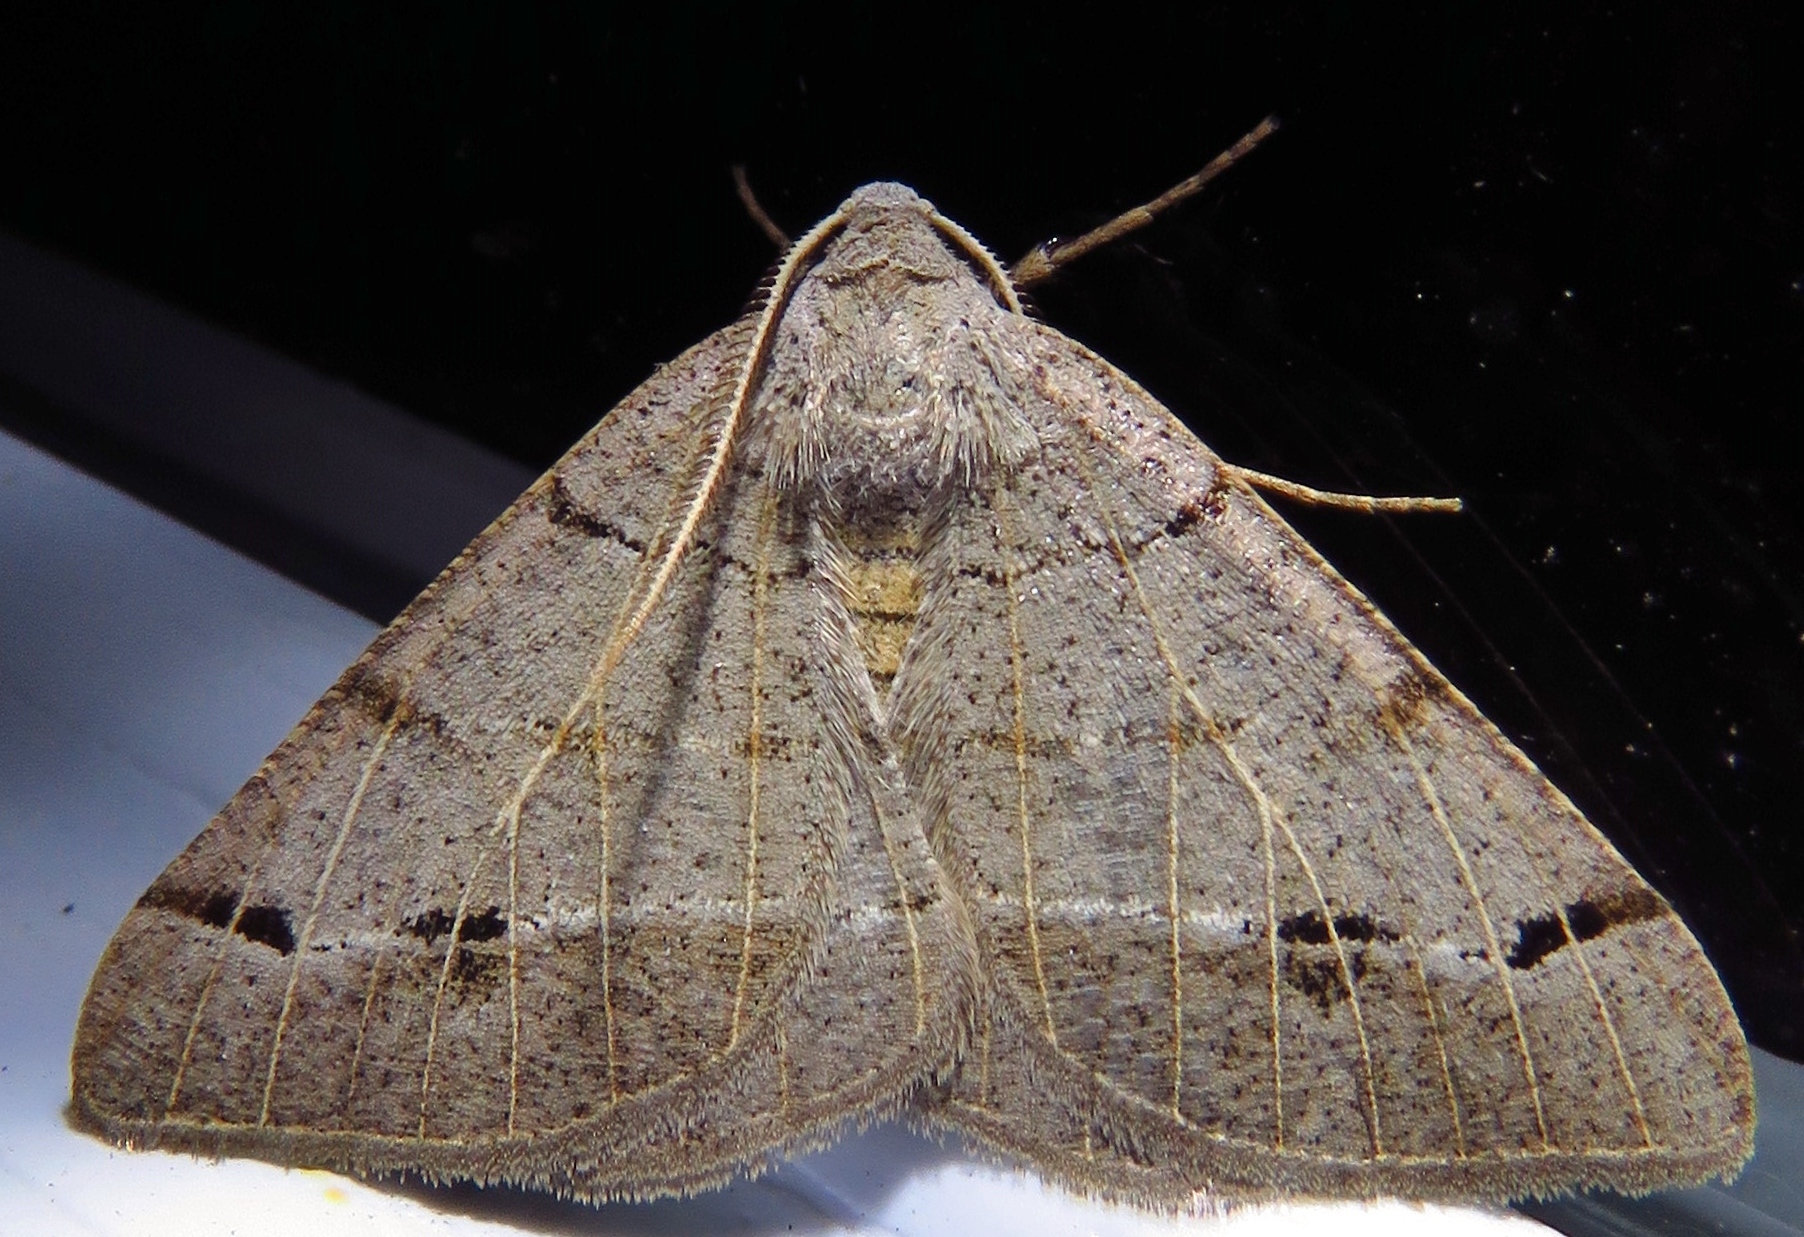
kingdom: Animalia
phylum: Arthropoda
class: Insecta
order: Lepidoptera
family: Geometridae
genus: Isturgia
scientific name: Isturgia dislocaria
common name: Pale-viened enconista
